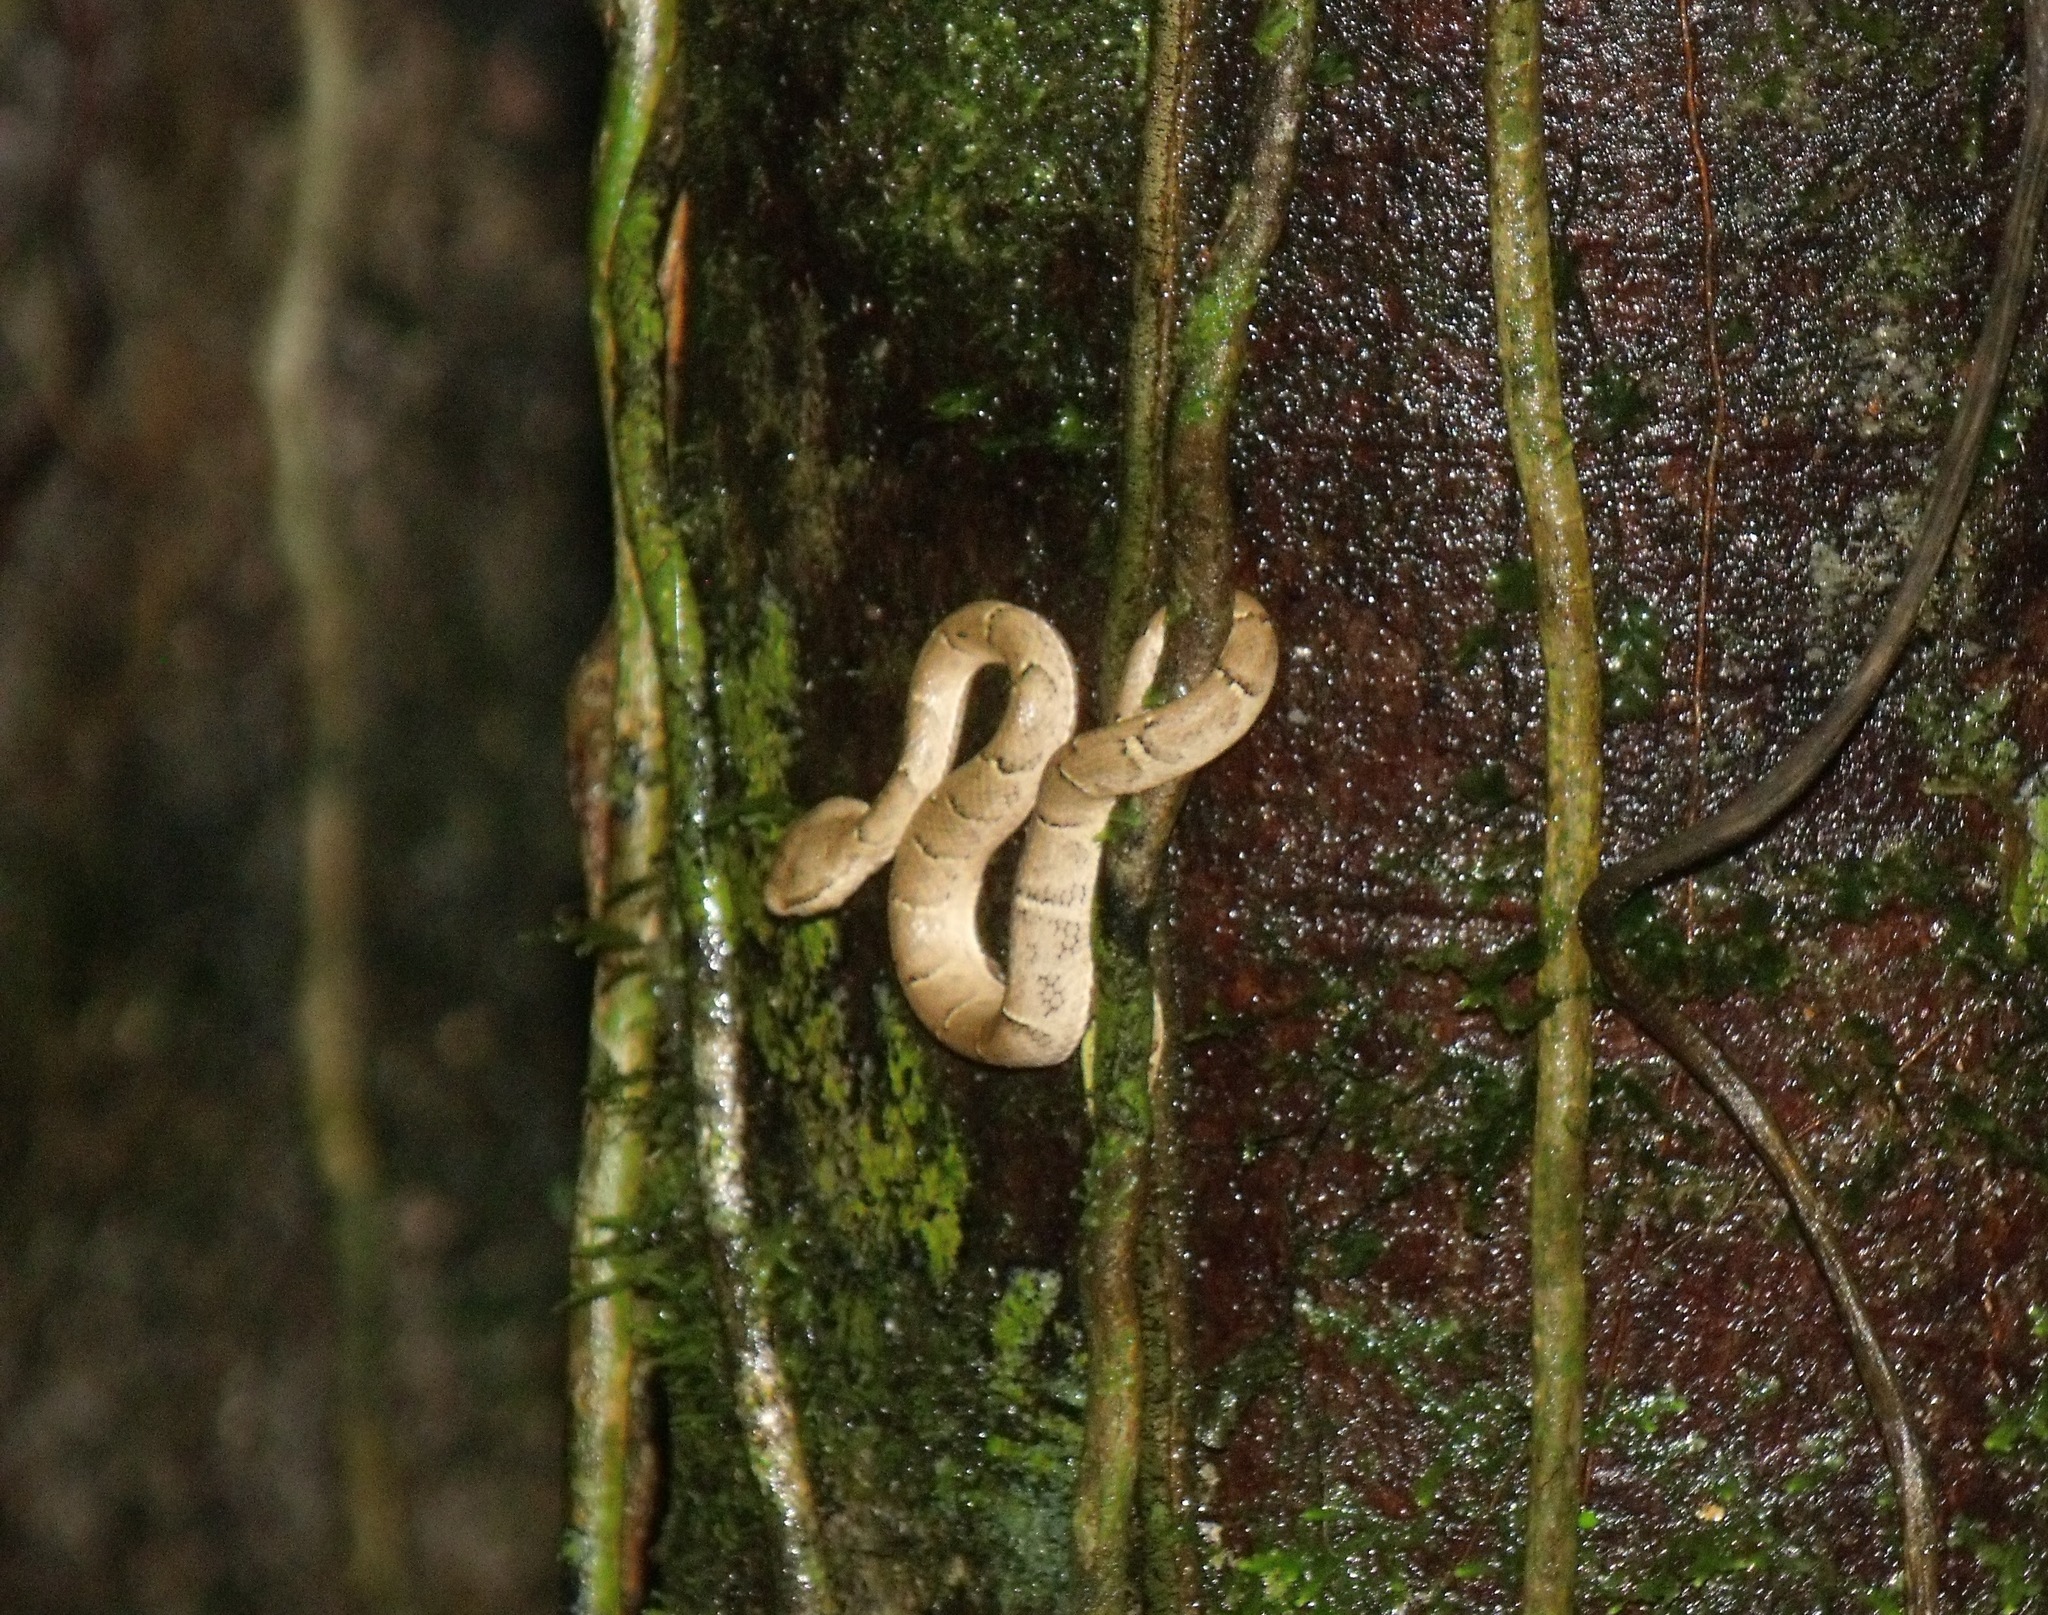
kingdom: Animalia
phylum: Chordata
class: Squamata
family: Viperidae
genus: Bothriechis
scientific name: Bothriechis lateralis
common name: Coffee palm viper
